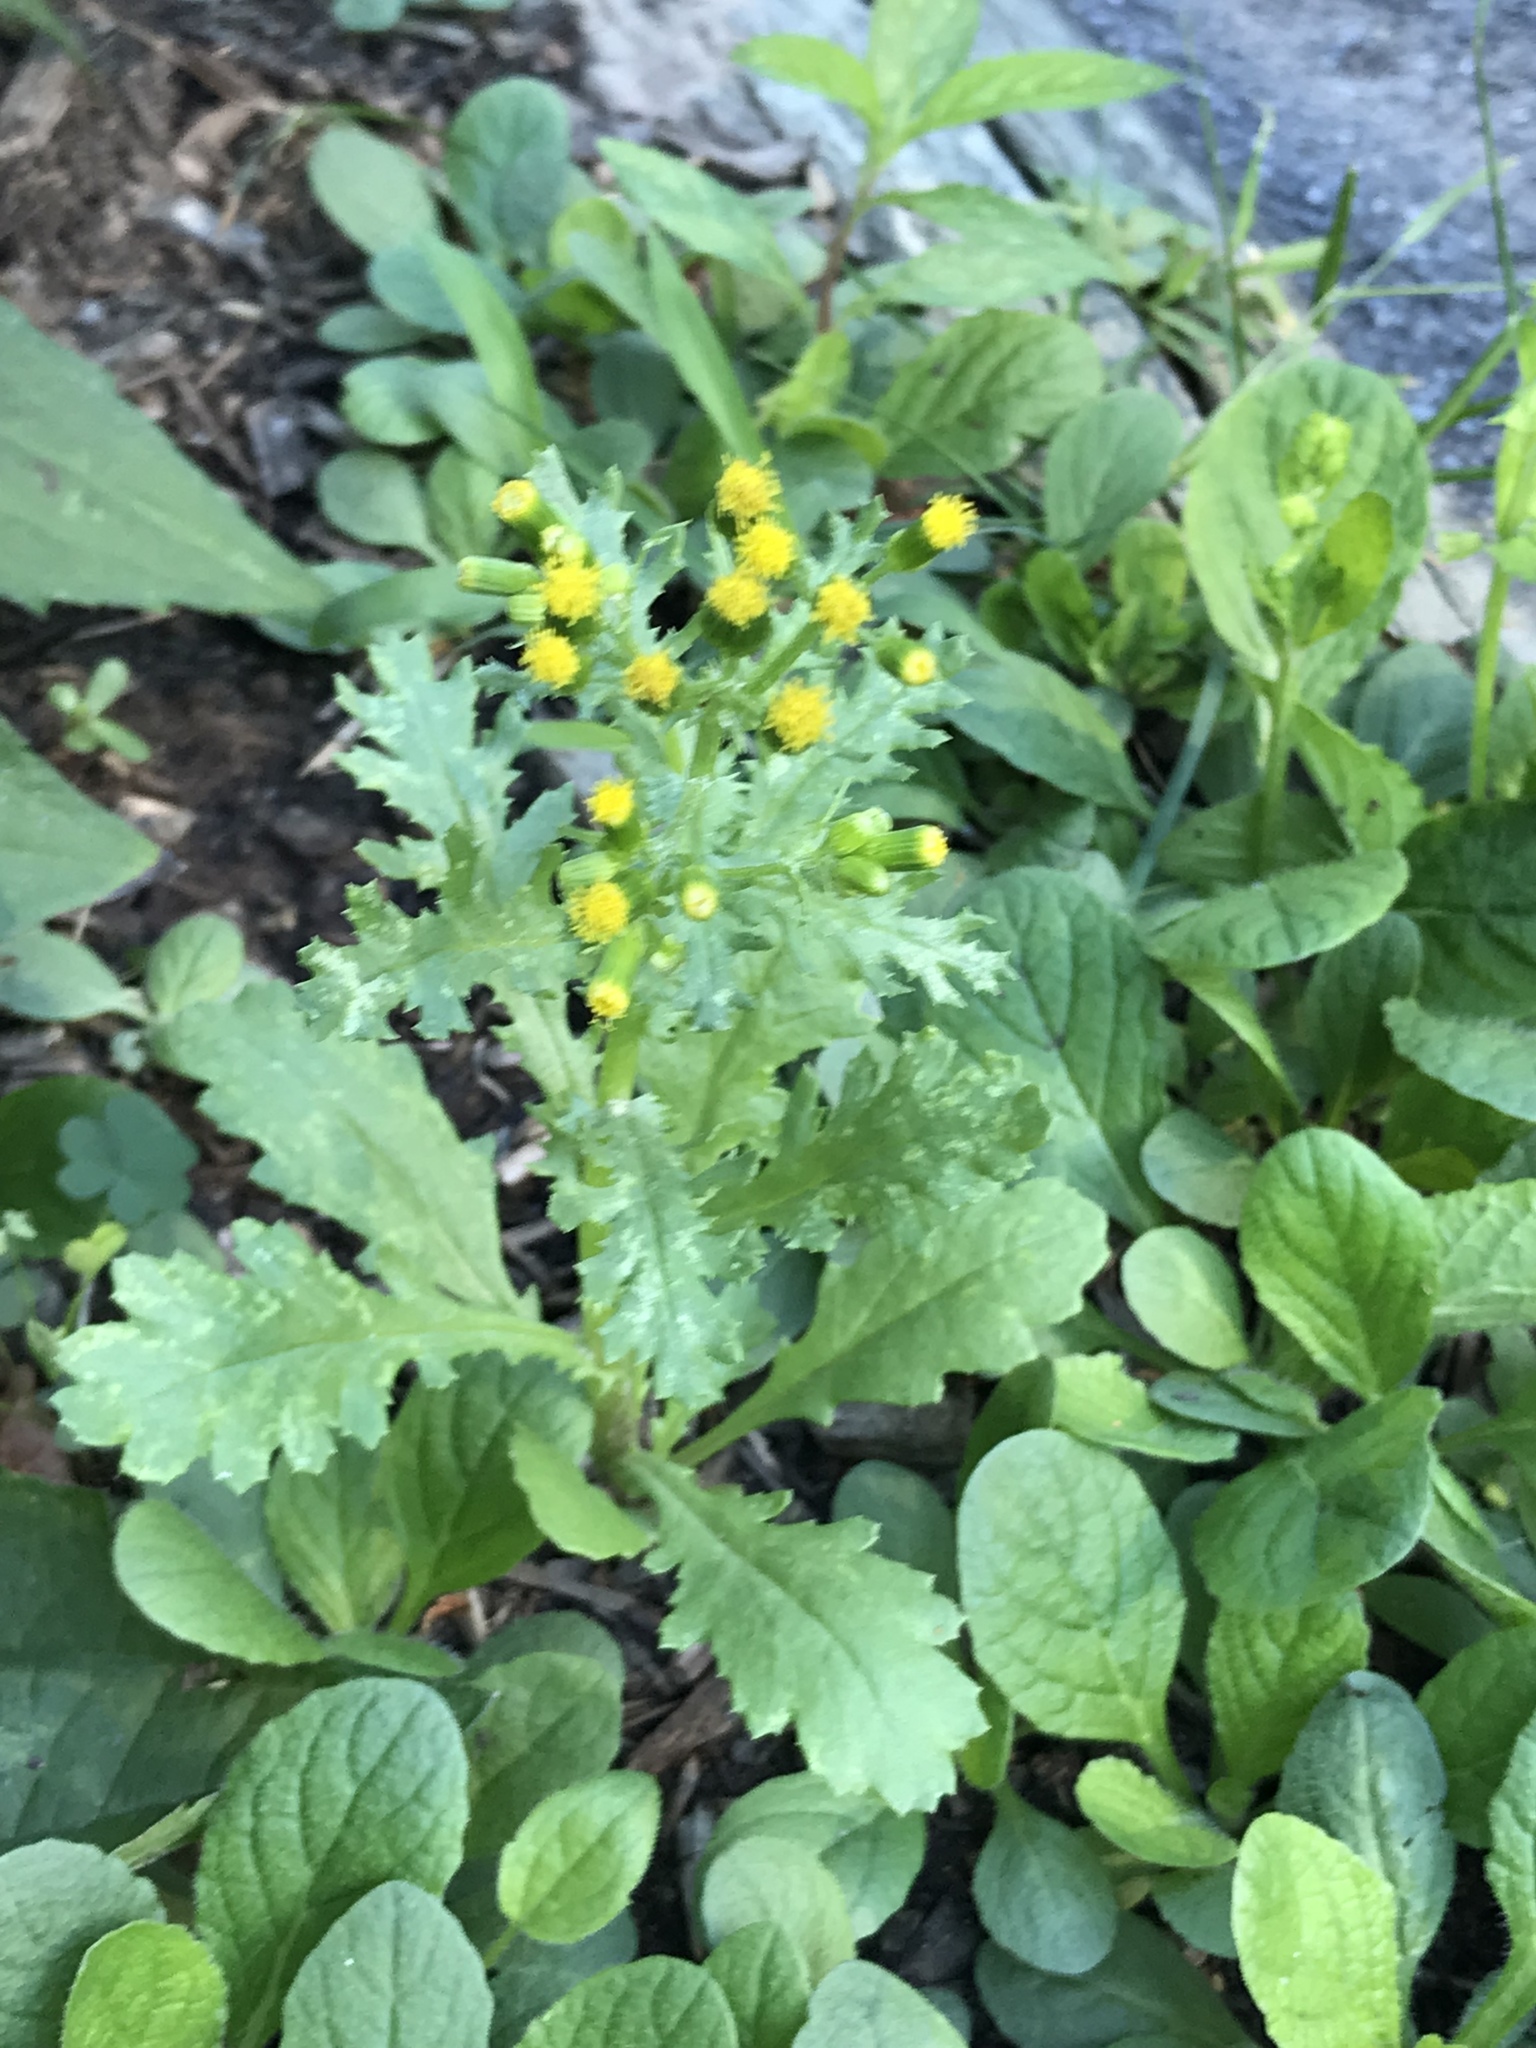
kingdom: Plantae
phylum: Tracheophyta
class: Magnoliopsida
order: Asterales
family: Asteraceae
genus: Senecio
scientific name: Senecio vulgaris
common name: Old-man-in-the-spring
